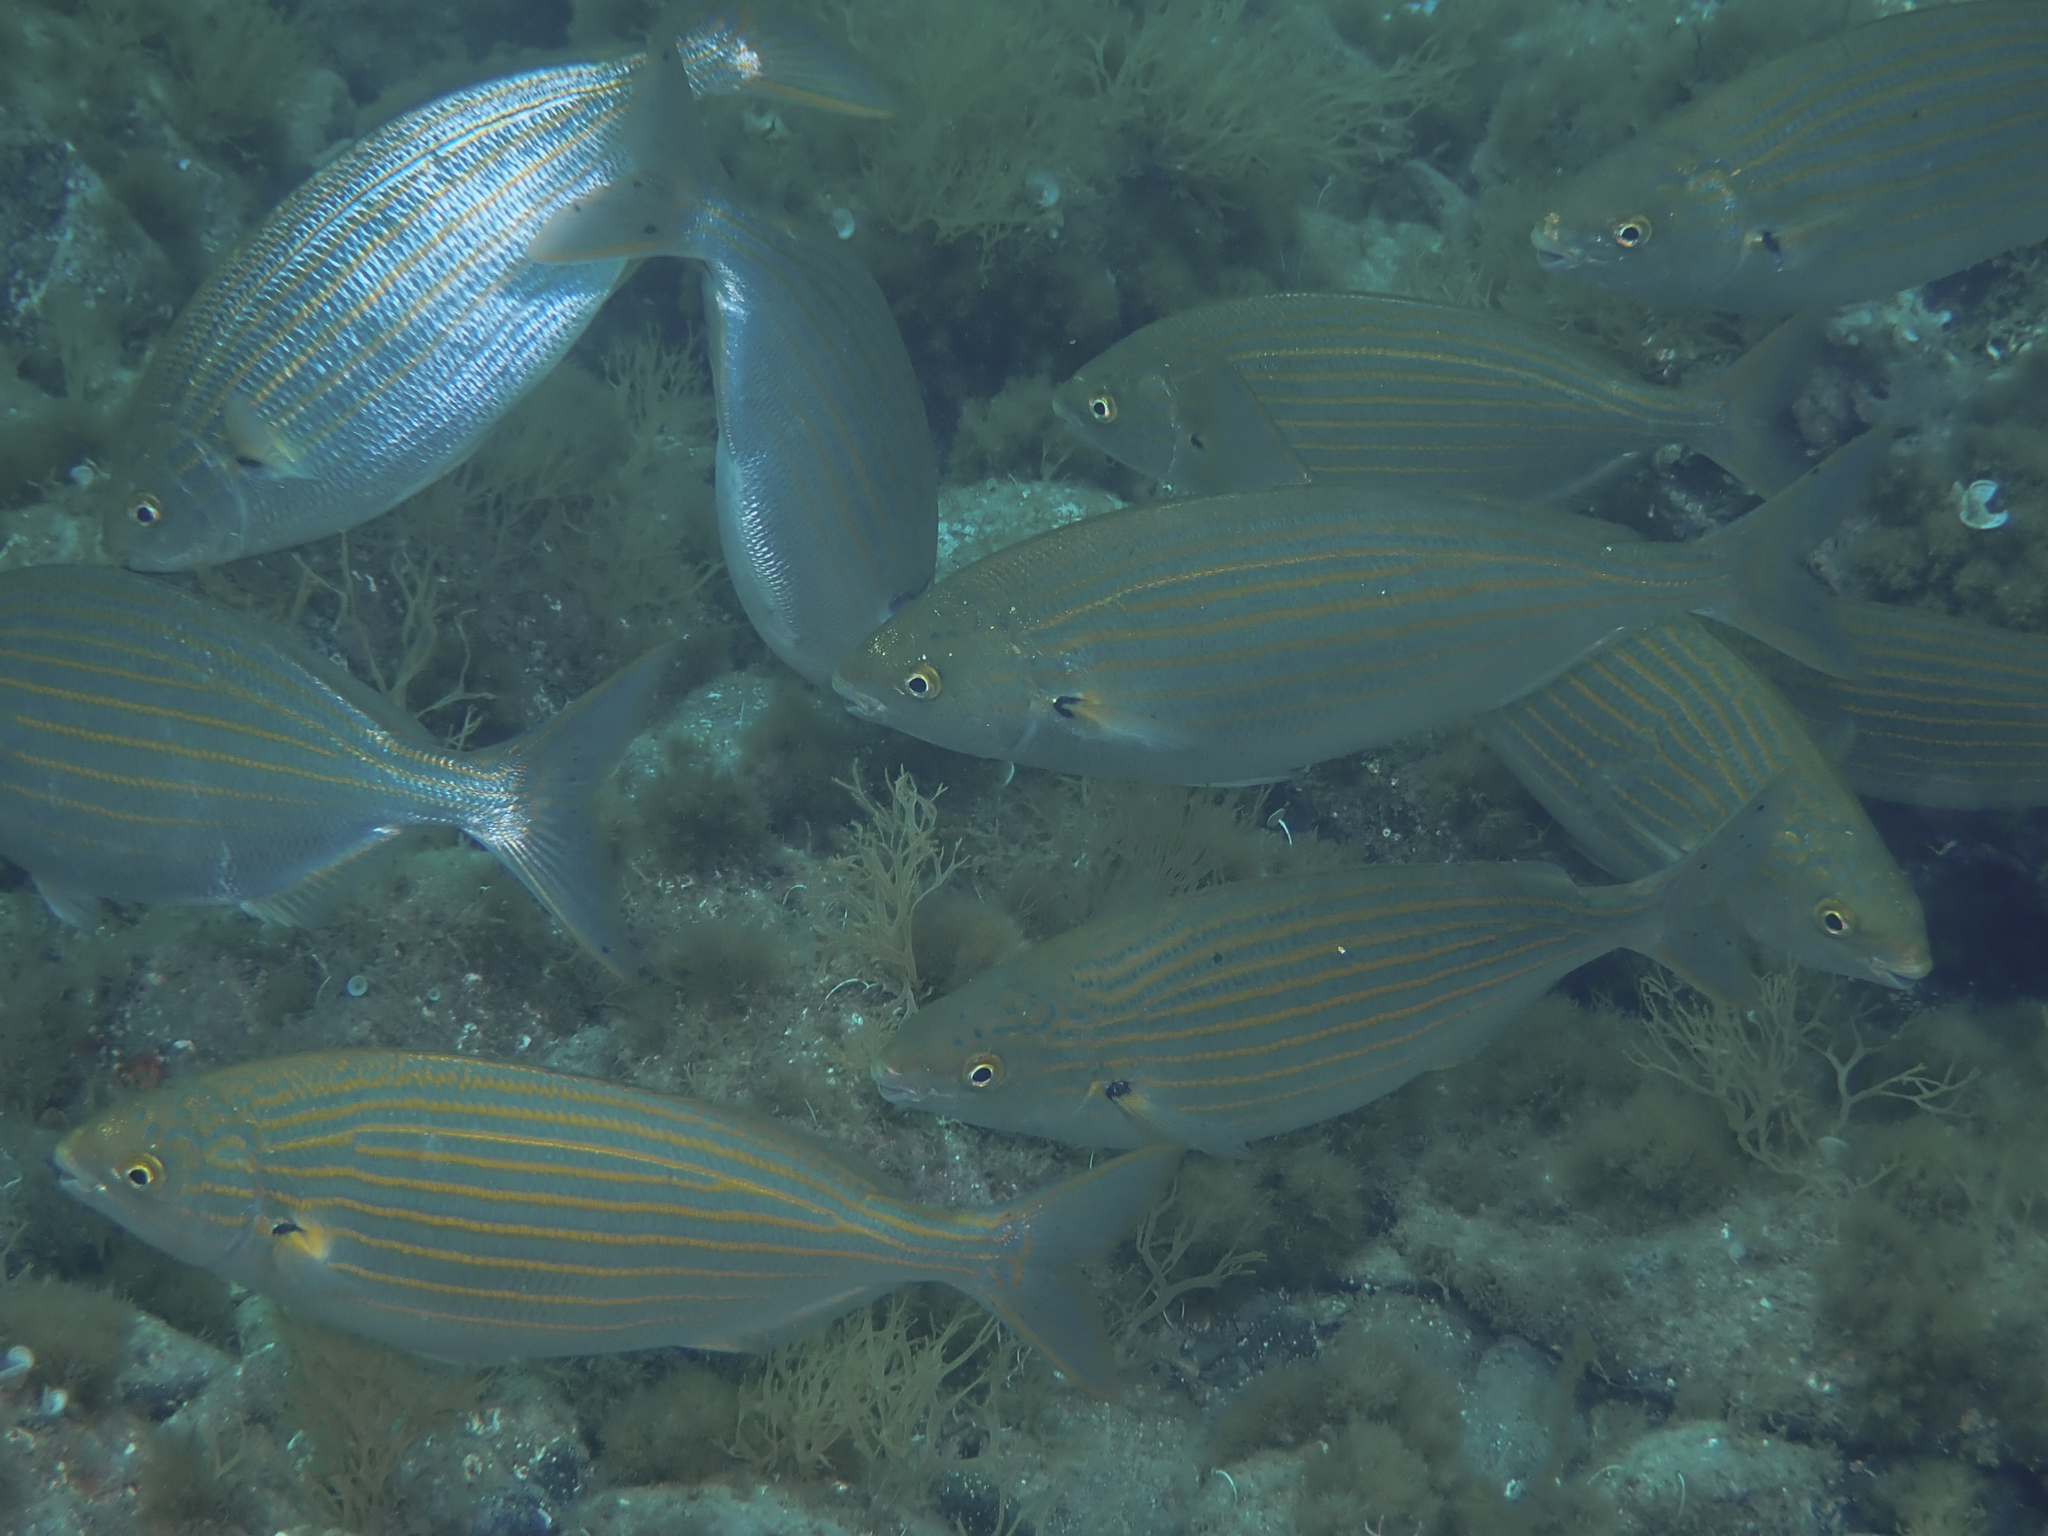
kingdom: Animalia
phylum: Chordata
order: Perciformes
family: Sparidae
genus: Sarpa
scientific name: Sarpa salpa
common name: Salema
